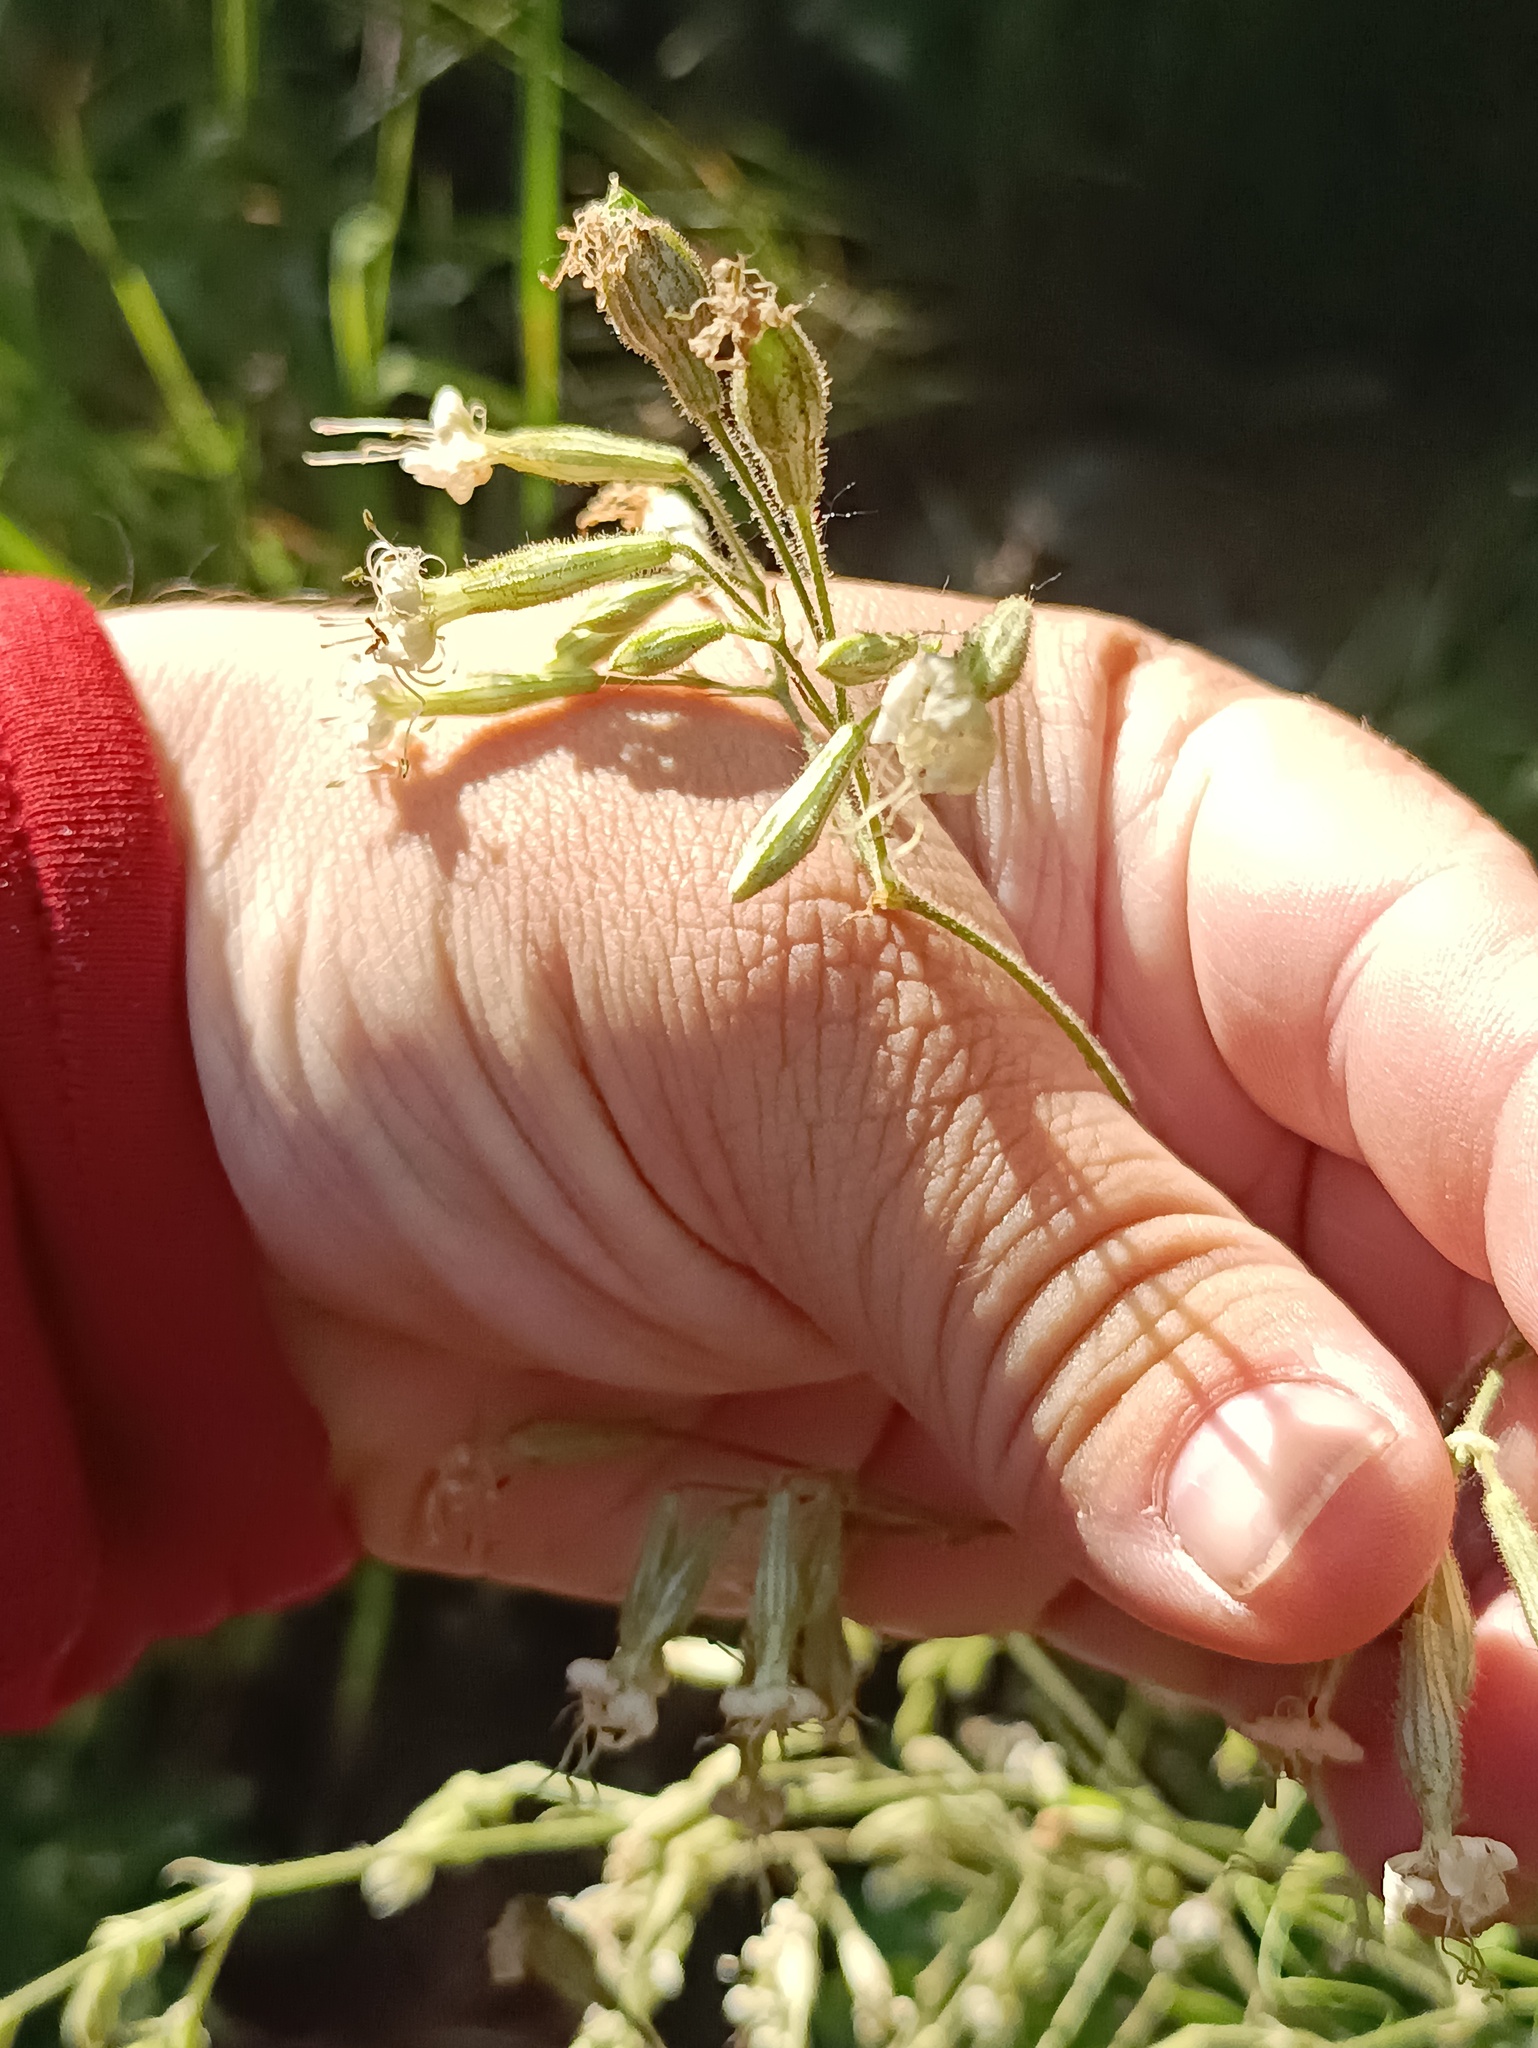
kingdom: Plantae
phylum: Tracheophyta
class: Magnoliopsida
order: Caryophyllales
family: Caryophyllaceae
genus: Silene
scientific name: Silene nutans
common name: Nottingham catchfly
